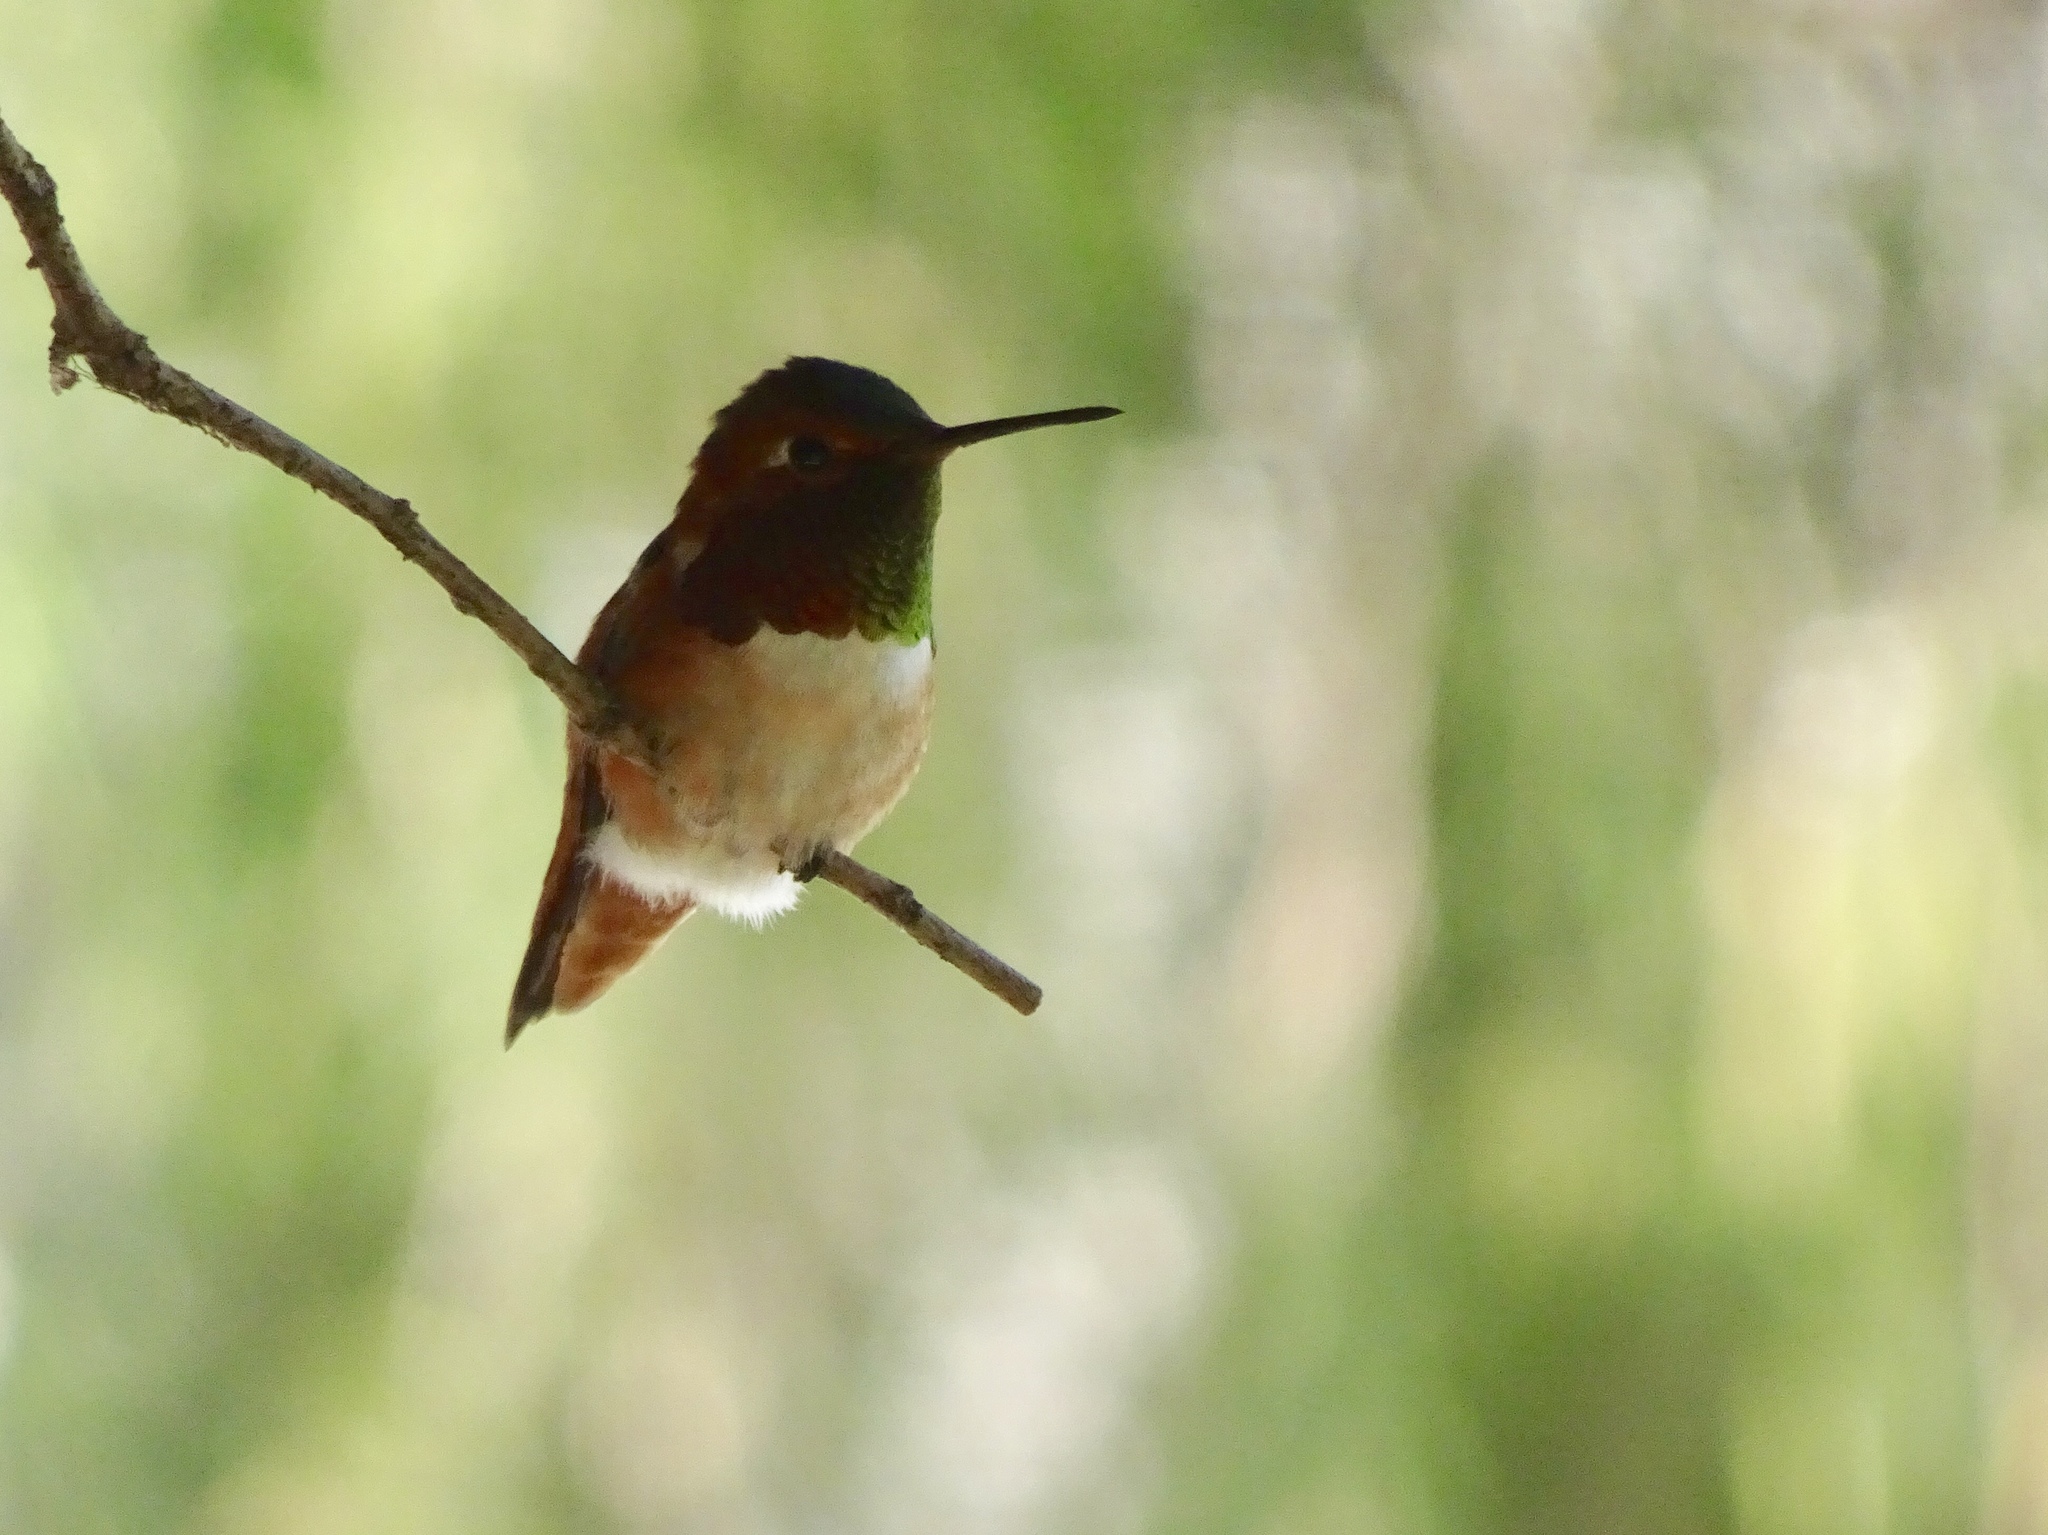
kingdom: Animalia
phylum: Chordata
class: Aves
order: Apodiformes
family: Trochilidae
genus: Selasphorus
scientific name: Selasphorus sasin
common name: Allen's hummingbird
